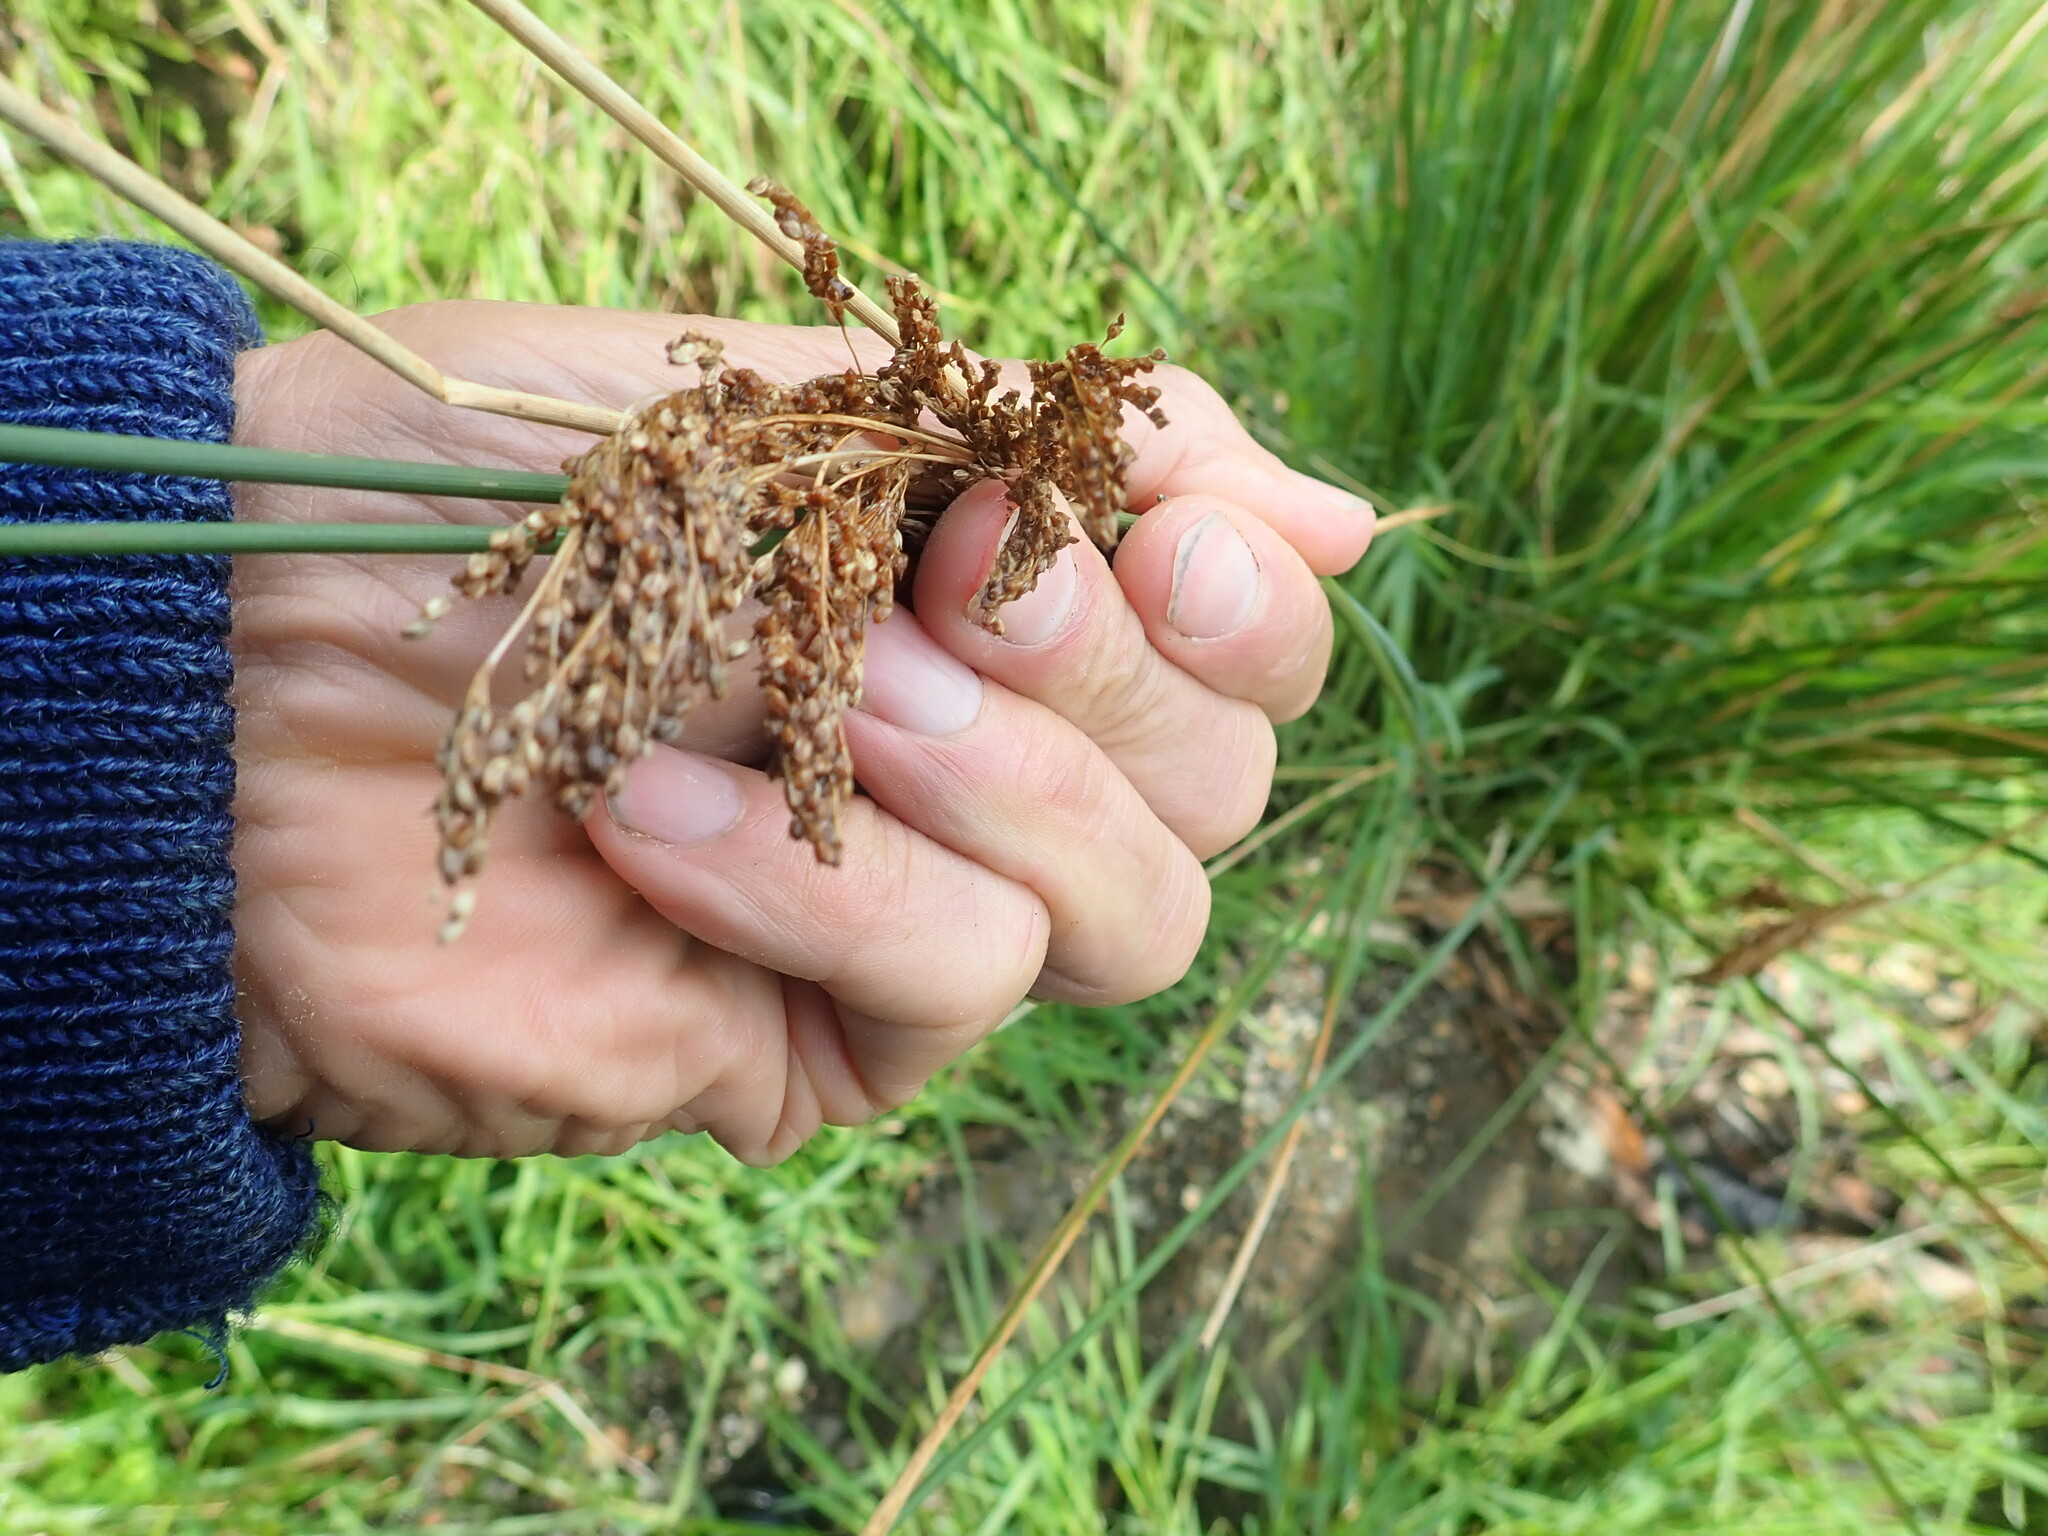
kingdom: Plantae
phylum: Tracheophyta
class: Liliopsida
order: Poales
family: Juncaceae
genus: Juncus
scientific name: Juncus pallidus
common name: Great soft-rush
